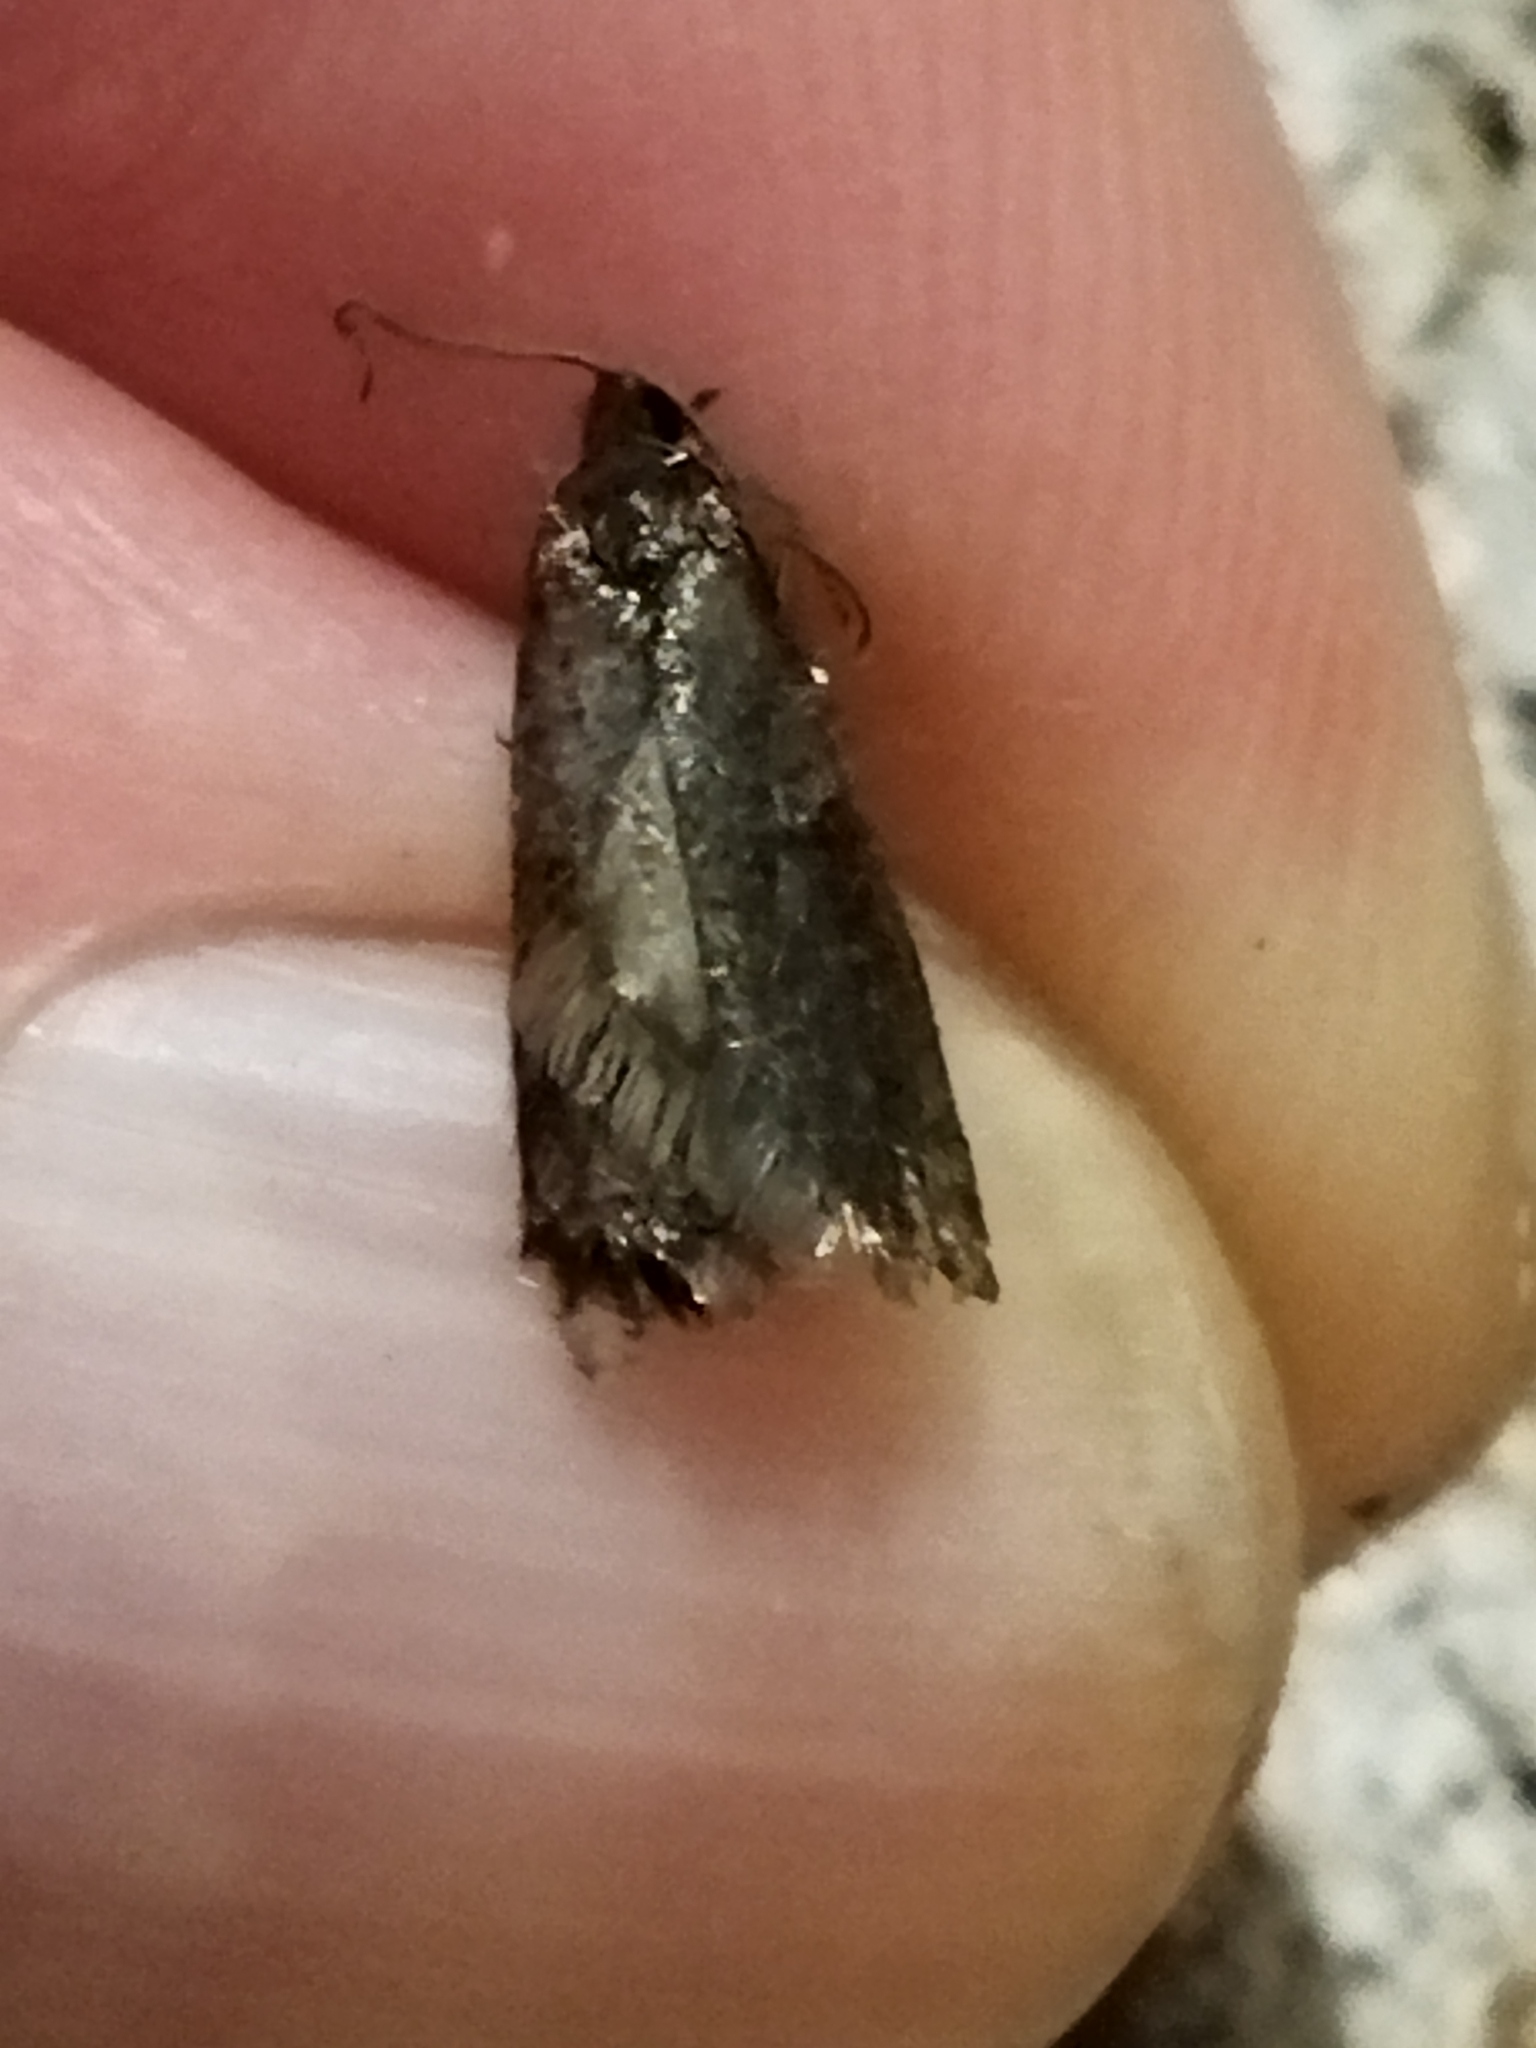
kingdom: Animalia
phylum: Arthropoda
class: Insecta
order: Lepidoptera
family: Tortricidae
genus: Tortricodes
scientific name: Tortricodes alternella
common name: Winter shade
